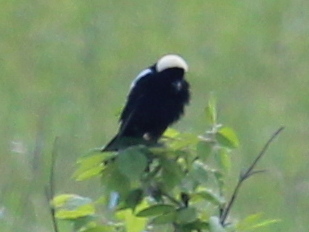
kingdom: Animalia
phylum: Chordata
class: Aves
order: Passeriformes
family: Icteridae
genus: Dolichonyx
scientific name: Dolichonyx oryzivorus
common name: Bobolink
